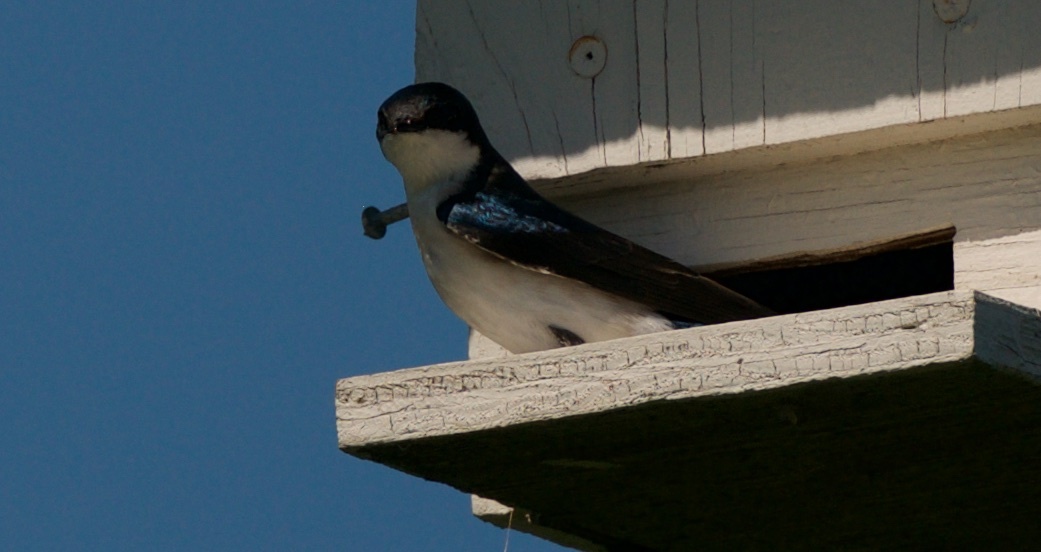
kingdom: Animalia
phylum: Chordata
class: Aves
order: Passeriformes
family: Hirundinidae
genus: Tachycineta
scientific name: Tachycineta bicolor
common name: Tree swallow
